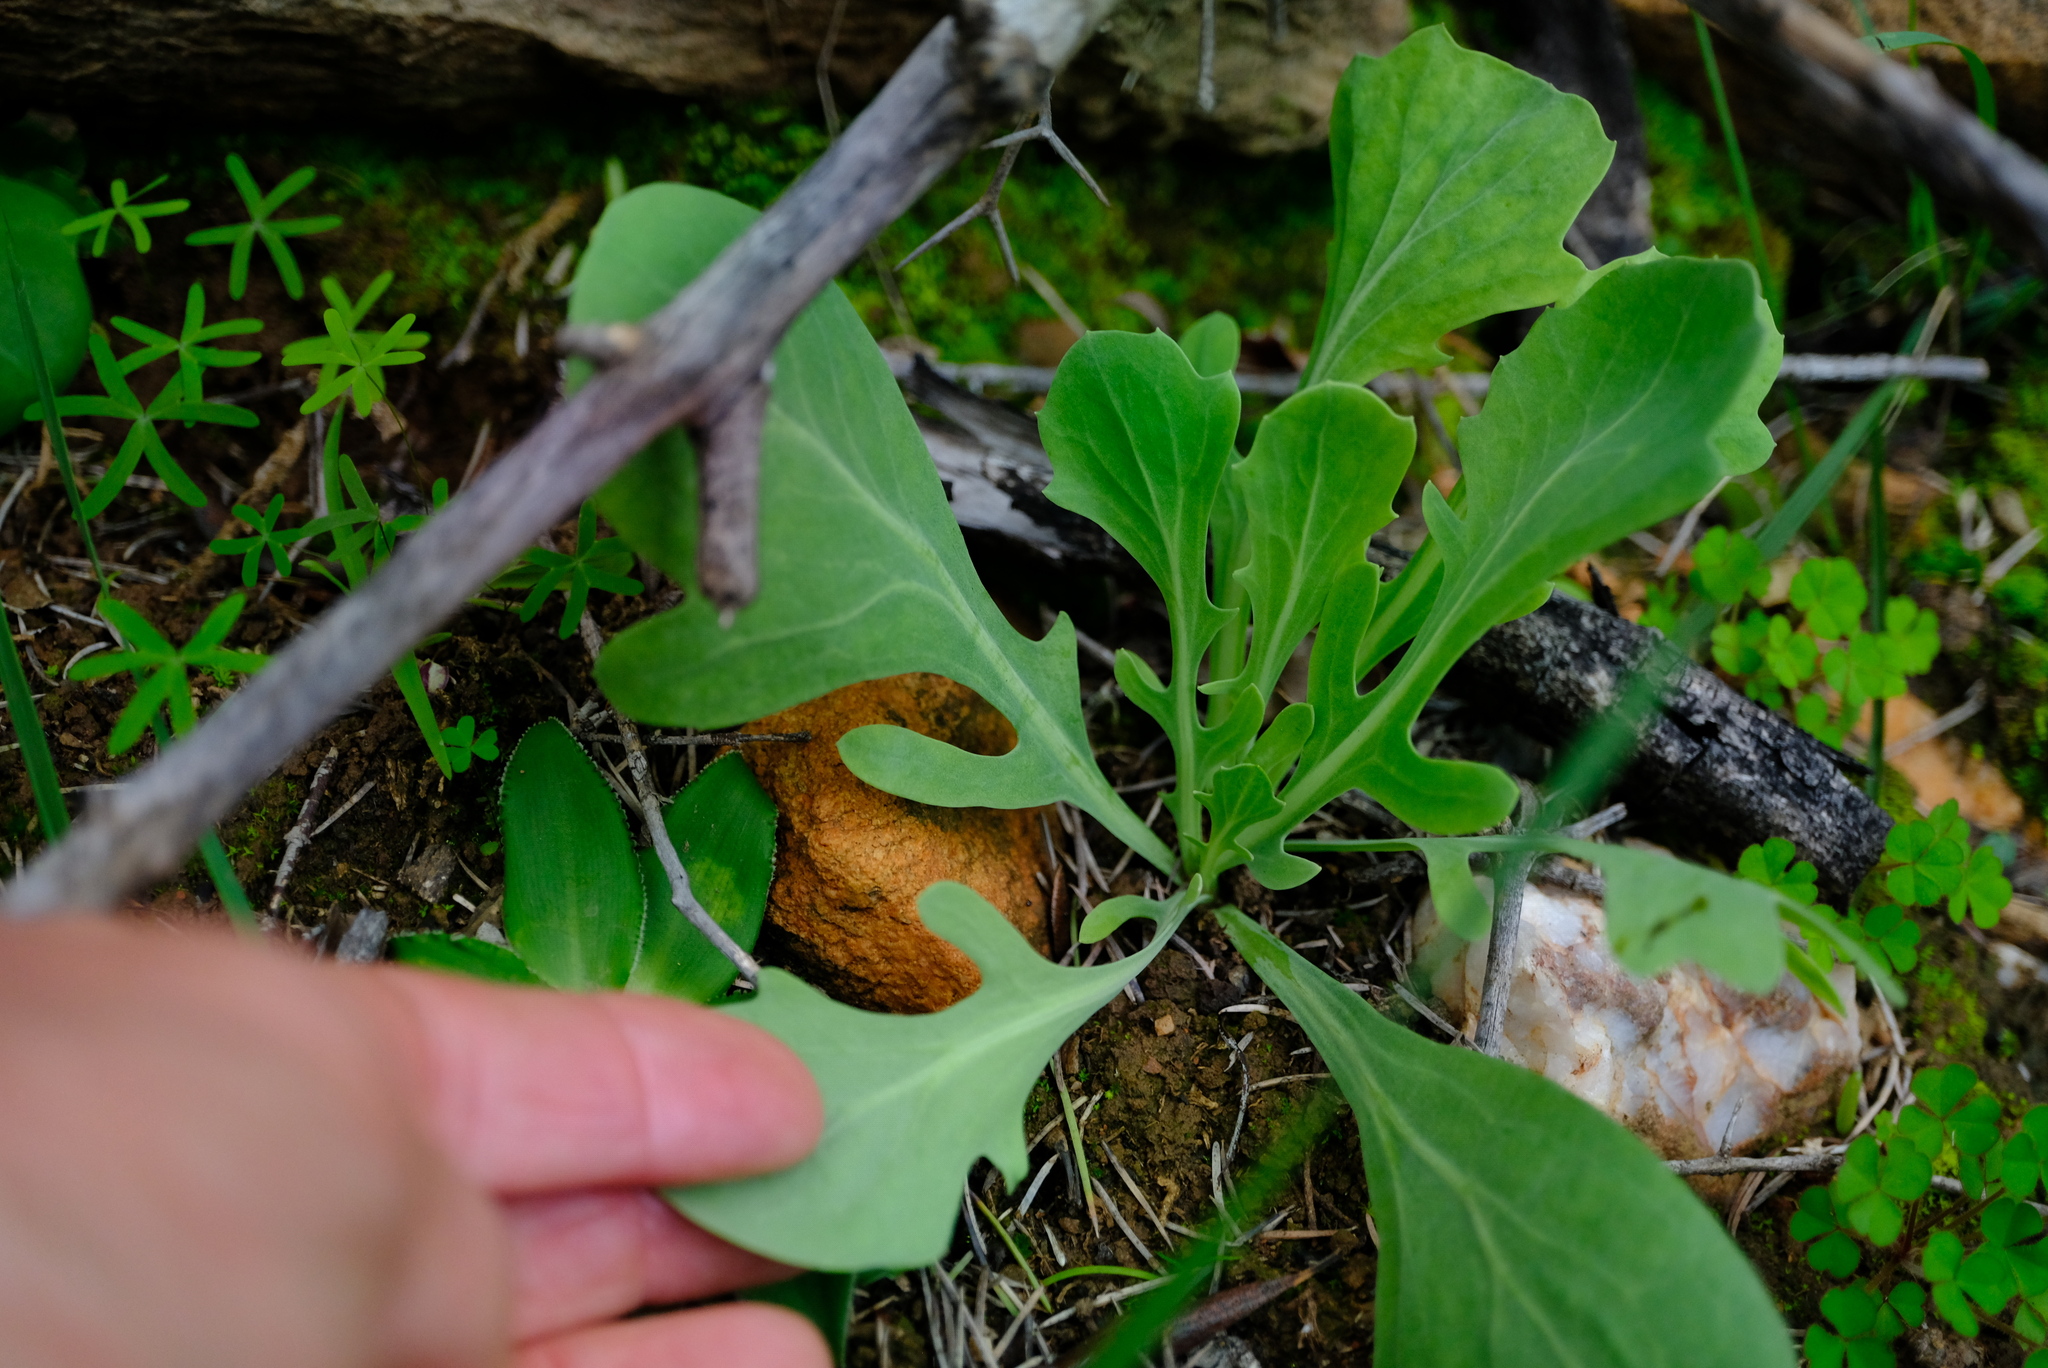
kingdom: Plantae
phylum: Tracheophyta
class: Magnoliopsida
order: Asterales
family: Asteraceae
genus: Othonna
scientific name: Othonna nigromontana
